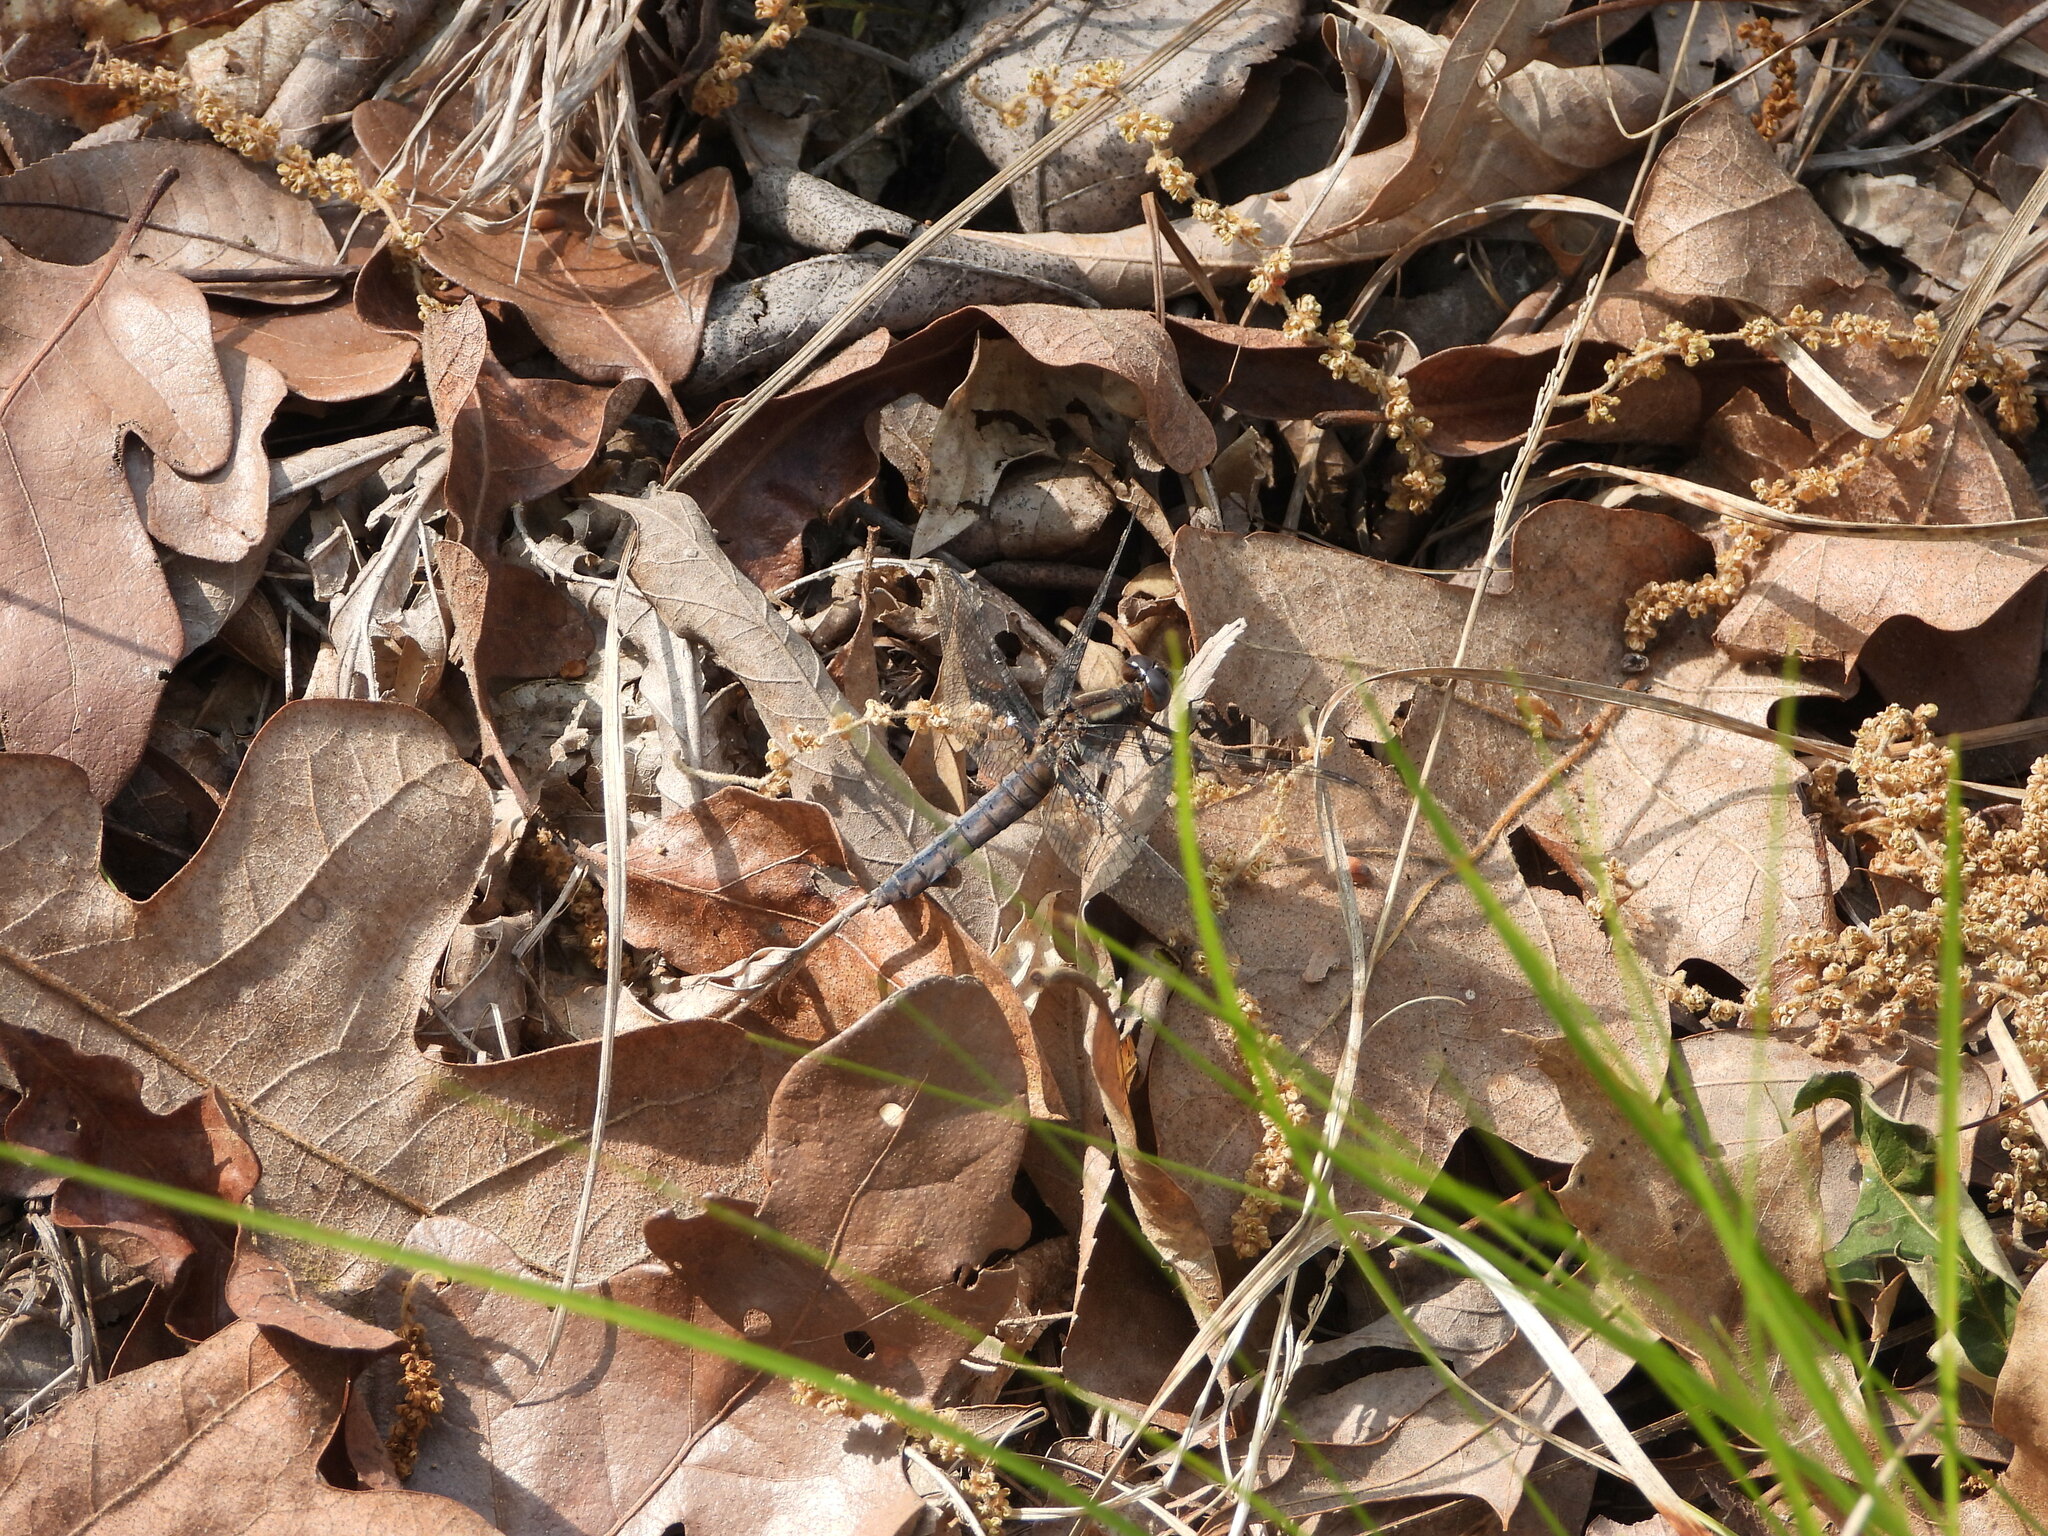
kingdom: Animalia
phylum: Arthropoda
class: Insecta
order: Odonata
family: Libellulidae
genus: Ladona
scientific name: Ladona deplanata
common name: Blue corporal
